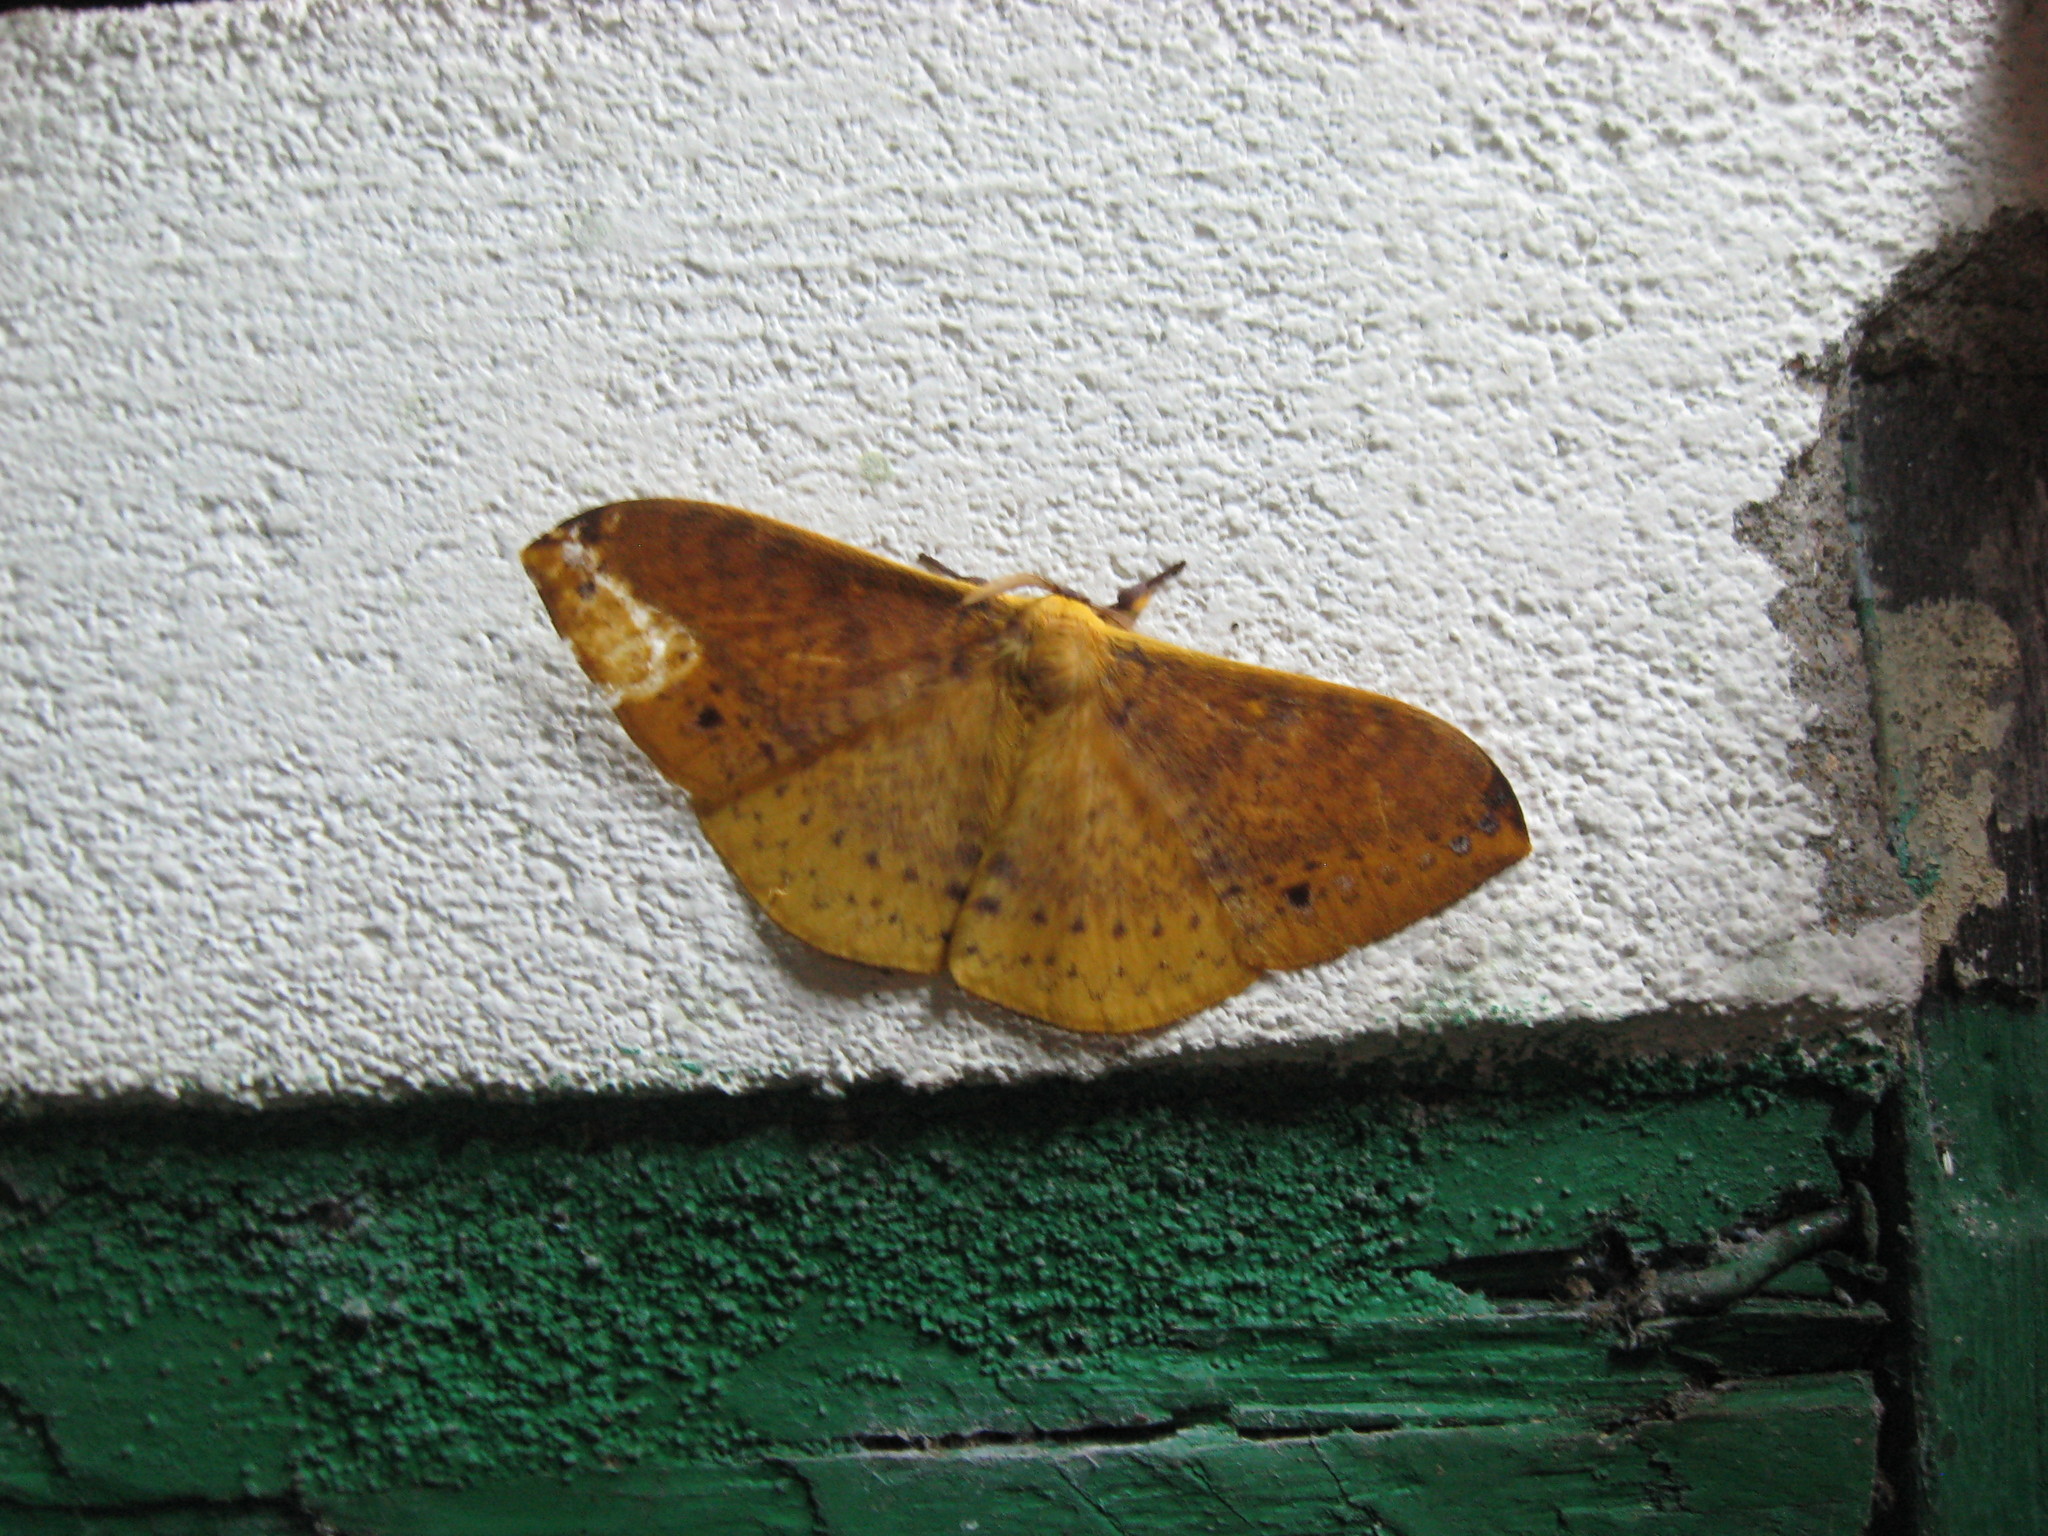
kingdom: Animalia
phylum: Arthropoda
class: Insecta
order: Lepidoptera
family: Eupterotidae
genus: Eupterote
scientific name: Eupterote mollifera
